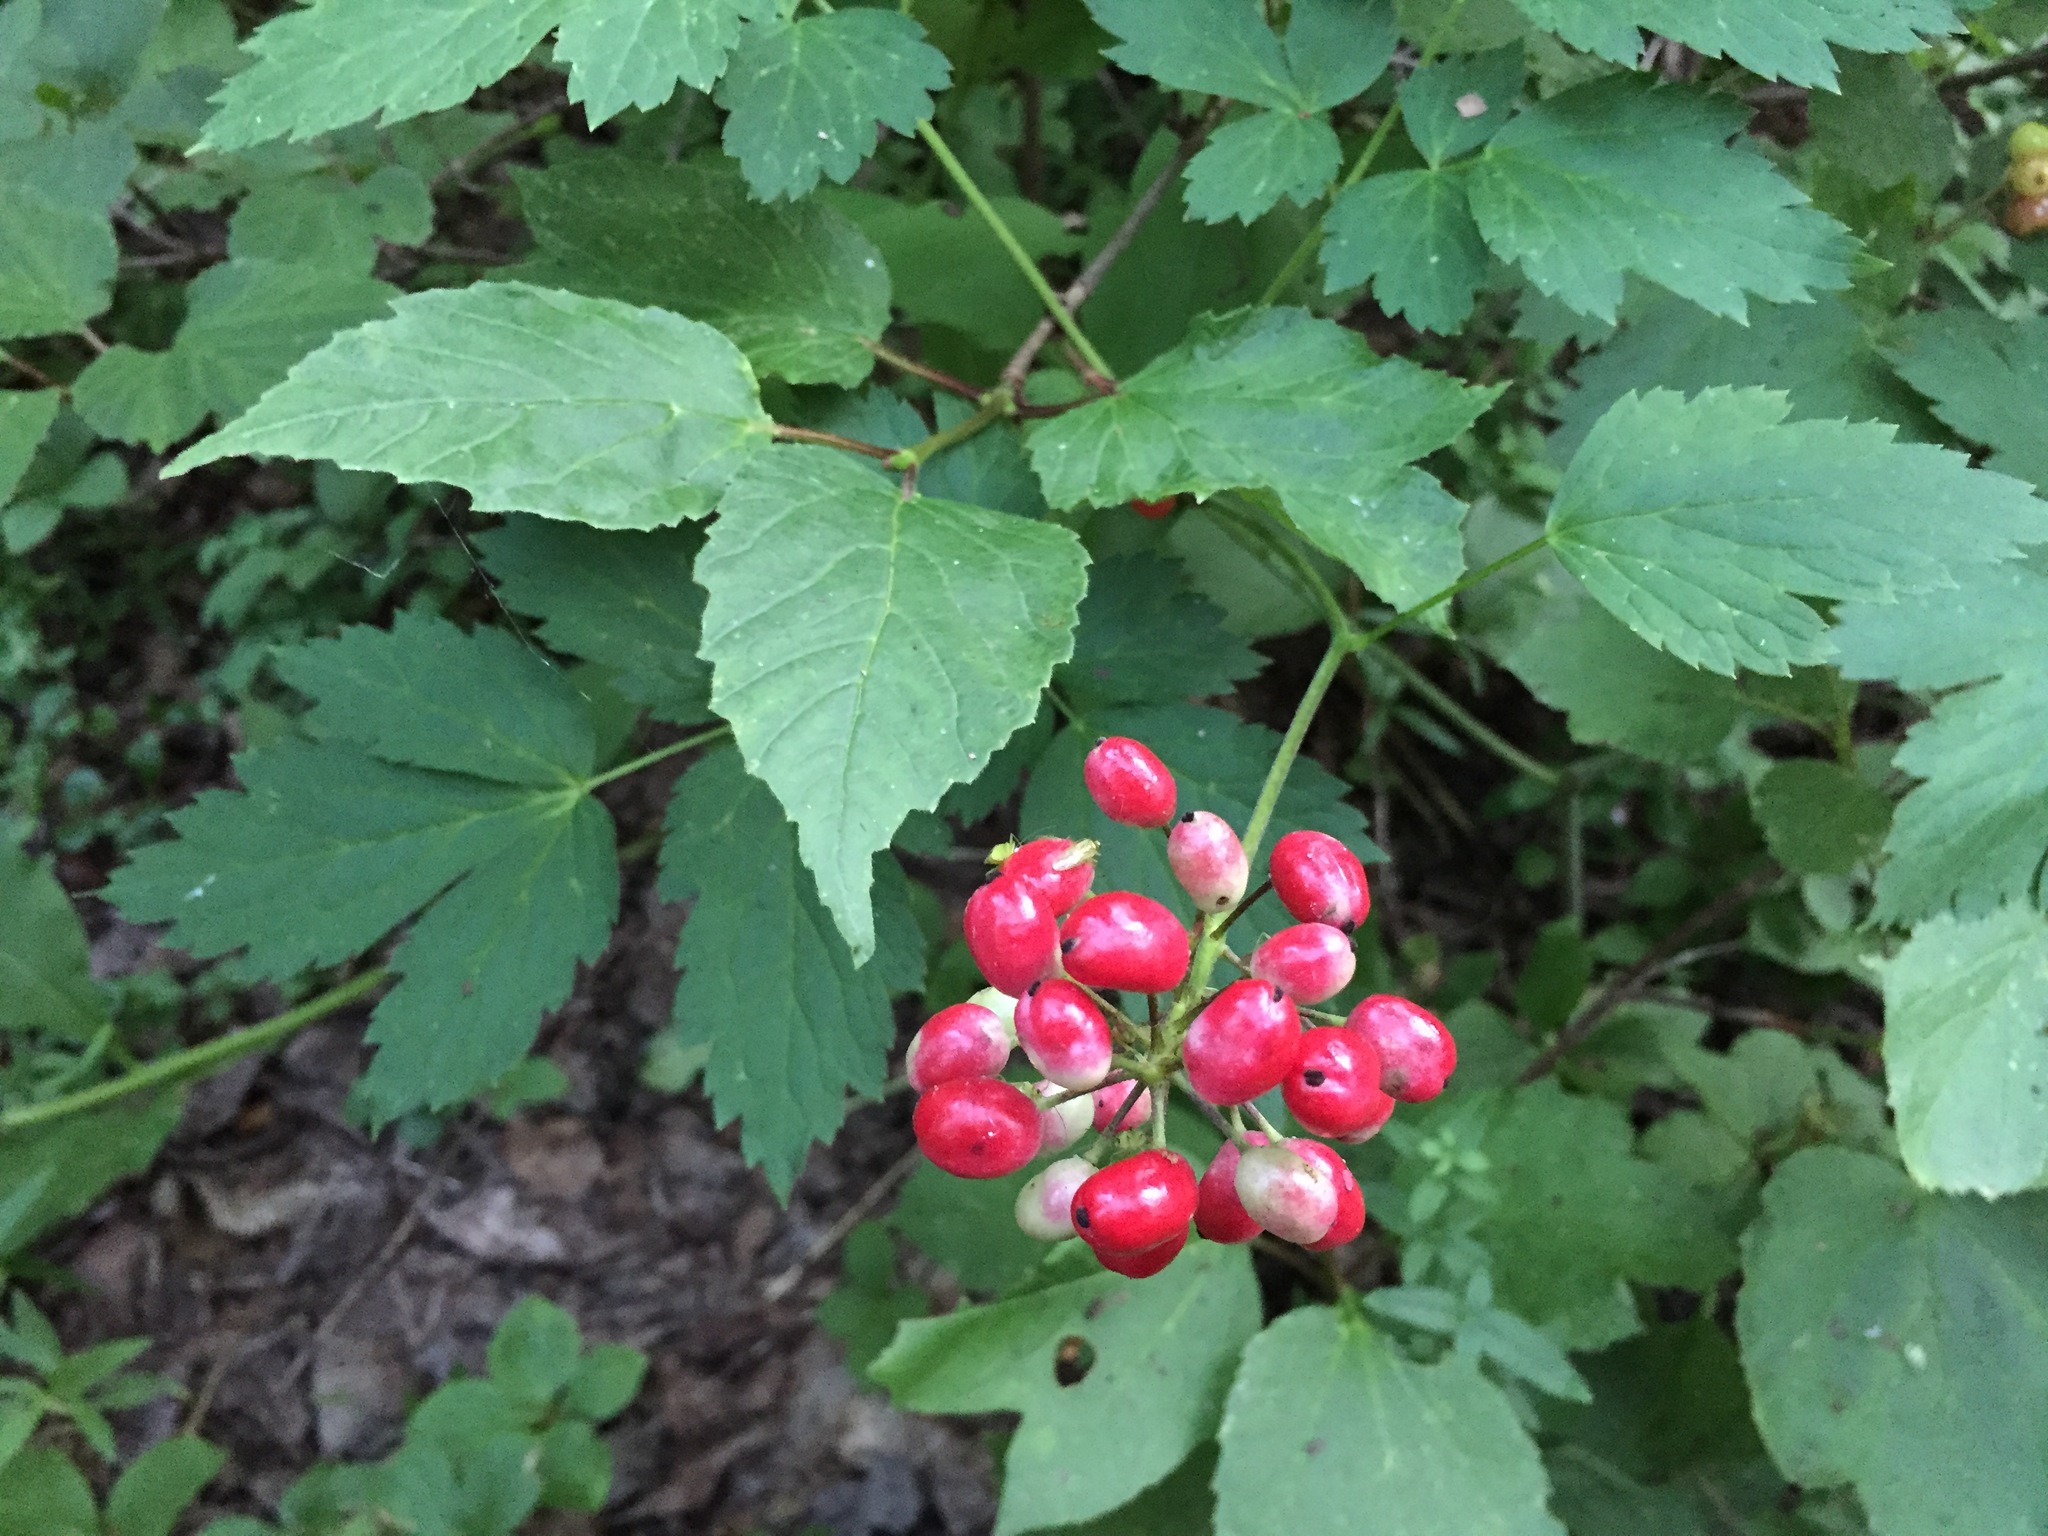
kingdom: Plantae
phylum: Tracheophyta
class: Magnoliopsida
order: Ranunculales
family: Ranunculaceae
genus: Actaea
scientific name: Actaea rubra
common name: Red baneberry
